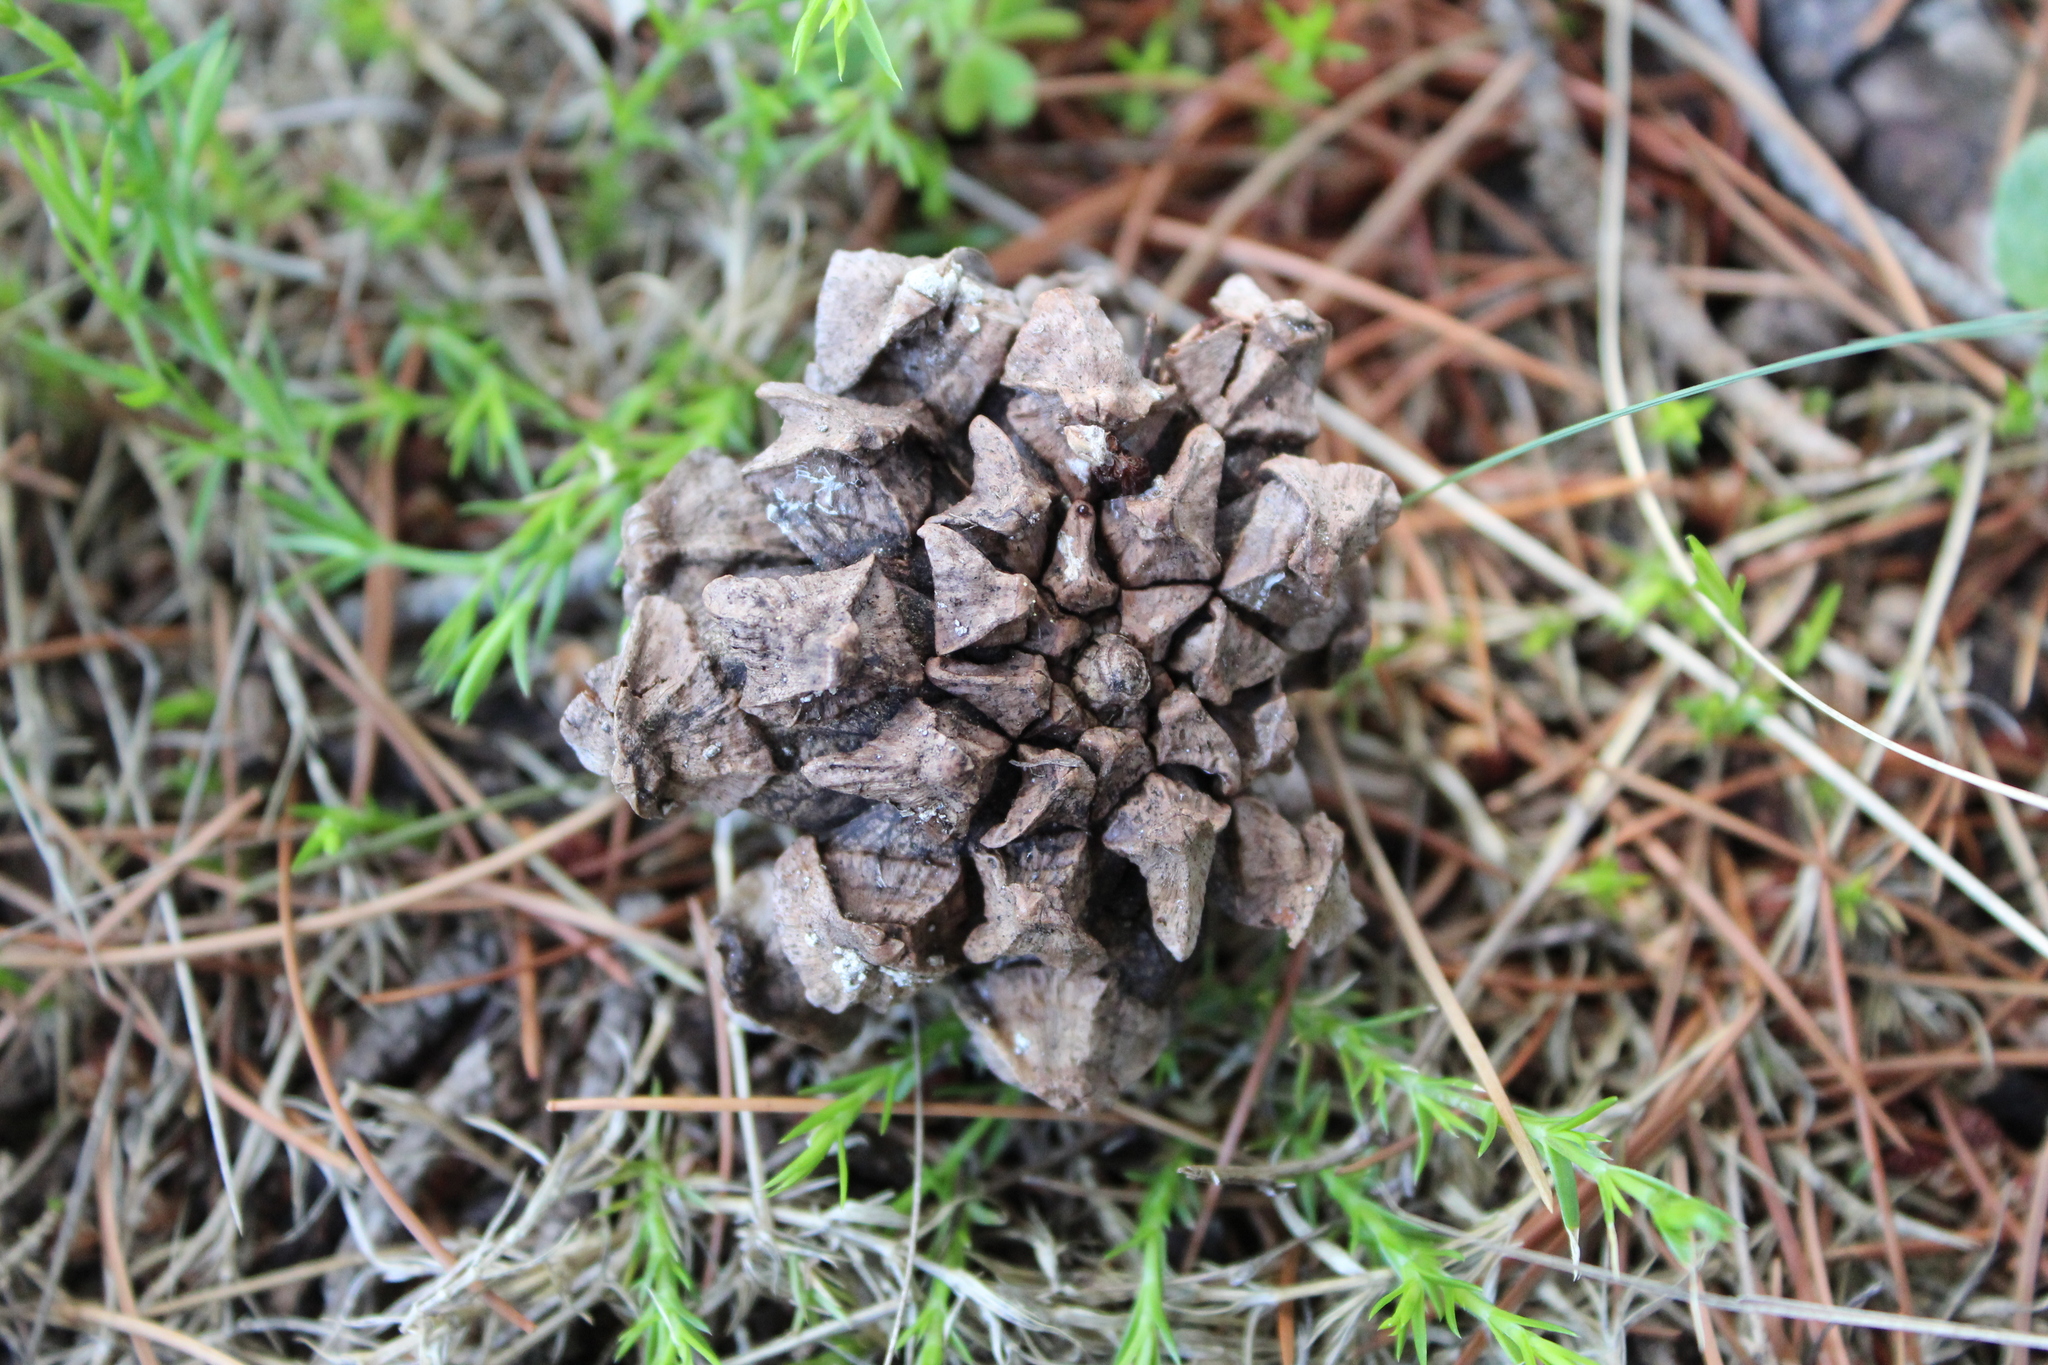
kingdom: Plantae
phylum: Tracheophyta
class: Pinopsida
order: Pinales
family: Pinaceae
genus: Pinus
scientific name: Pinus cembroides
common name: Mexican nut pine
